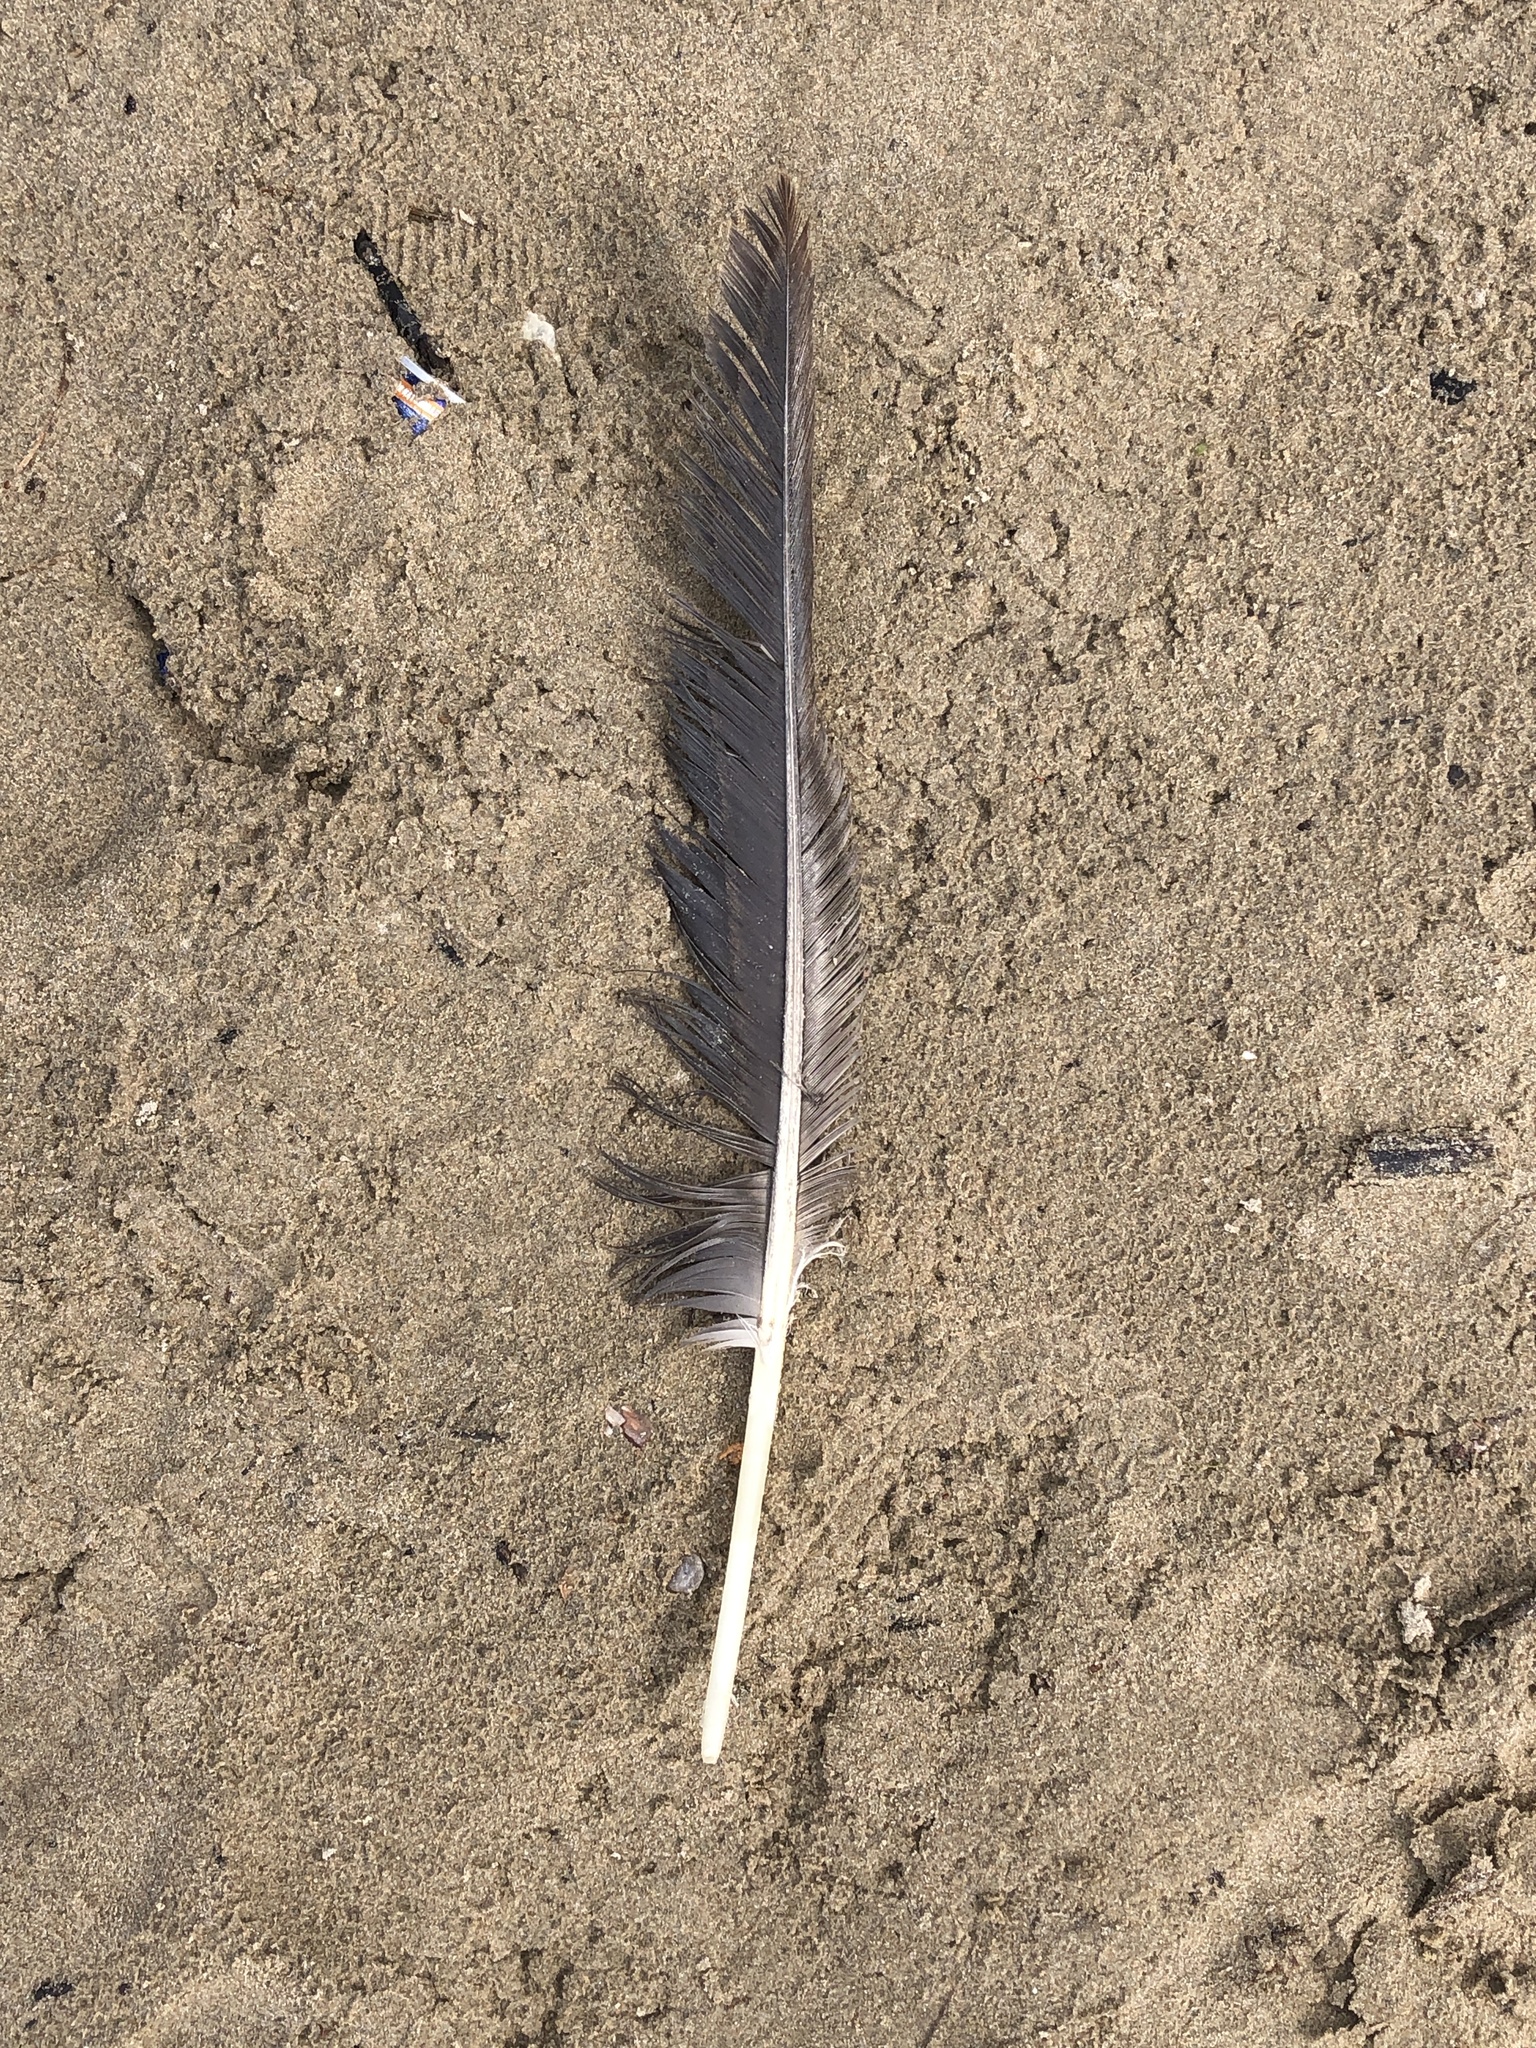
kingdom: Animalia
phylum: Chordata
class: Aves
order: Anseriformes
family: Anatidae
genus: Branta
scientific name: Branta canadensis
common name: Canada goose
